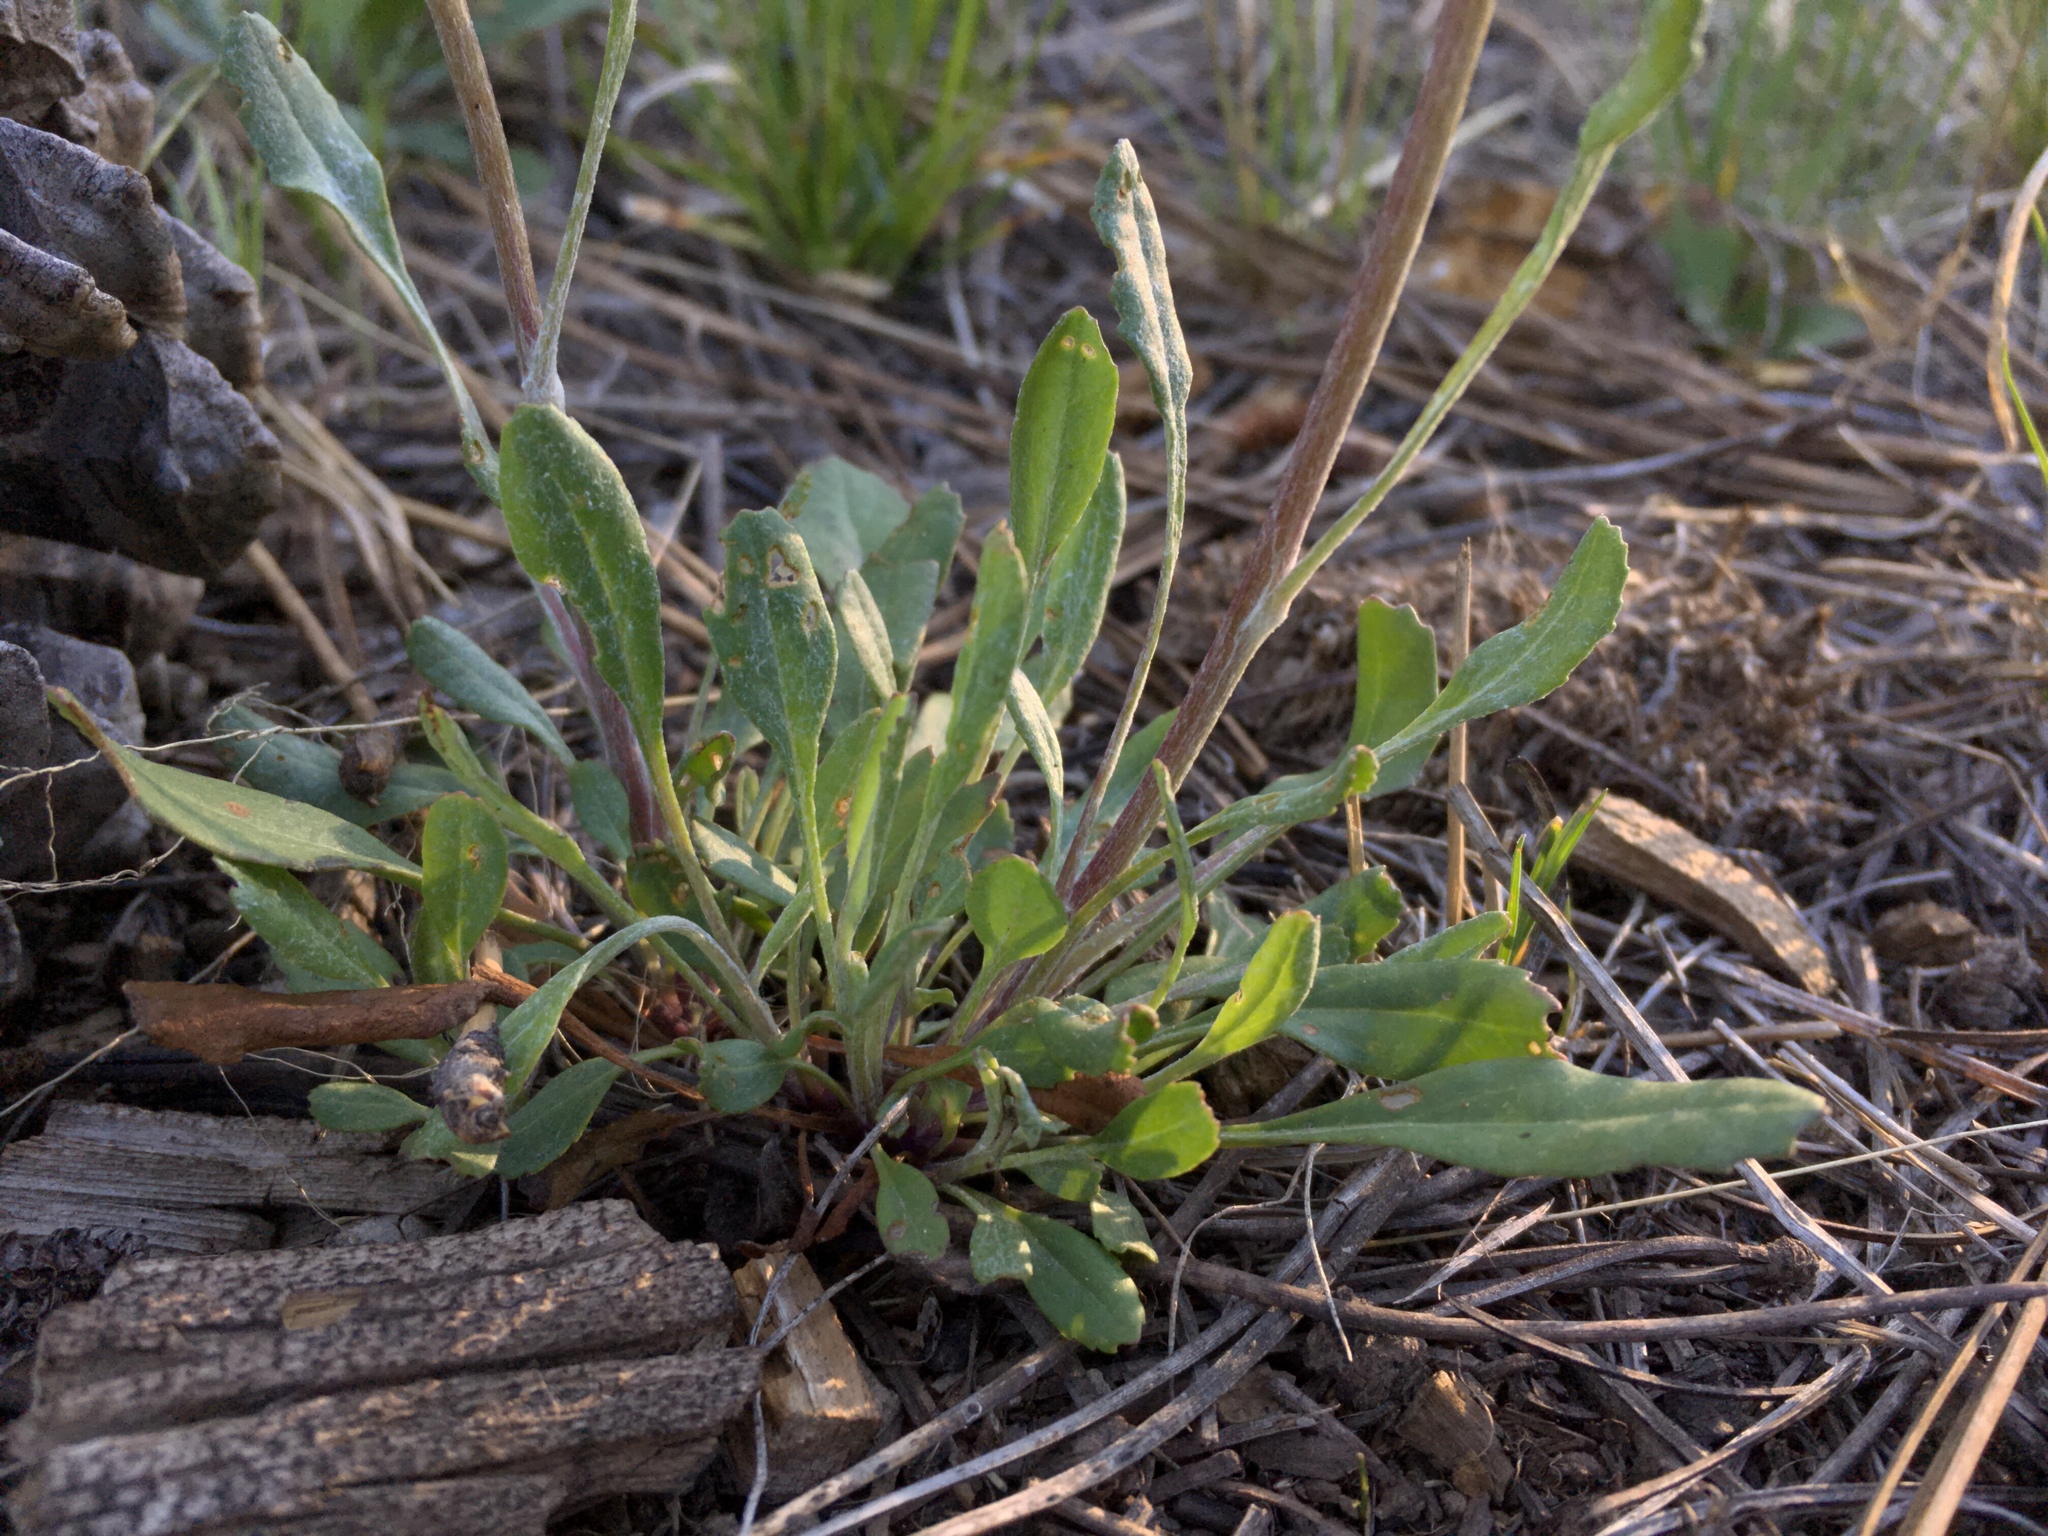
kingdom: Plantae
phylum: Tracheophyta
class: Magnoliopsida
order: Asterales
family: Asteraceae
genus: Packera
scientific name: Packera neomexicana
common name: New mexico butterweed
